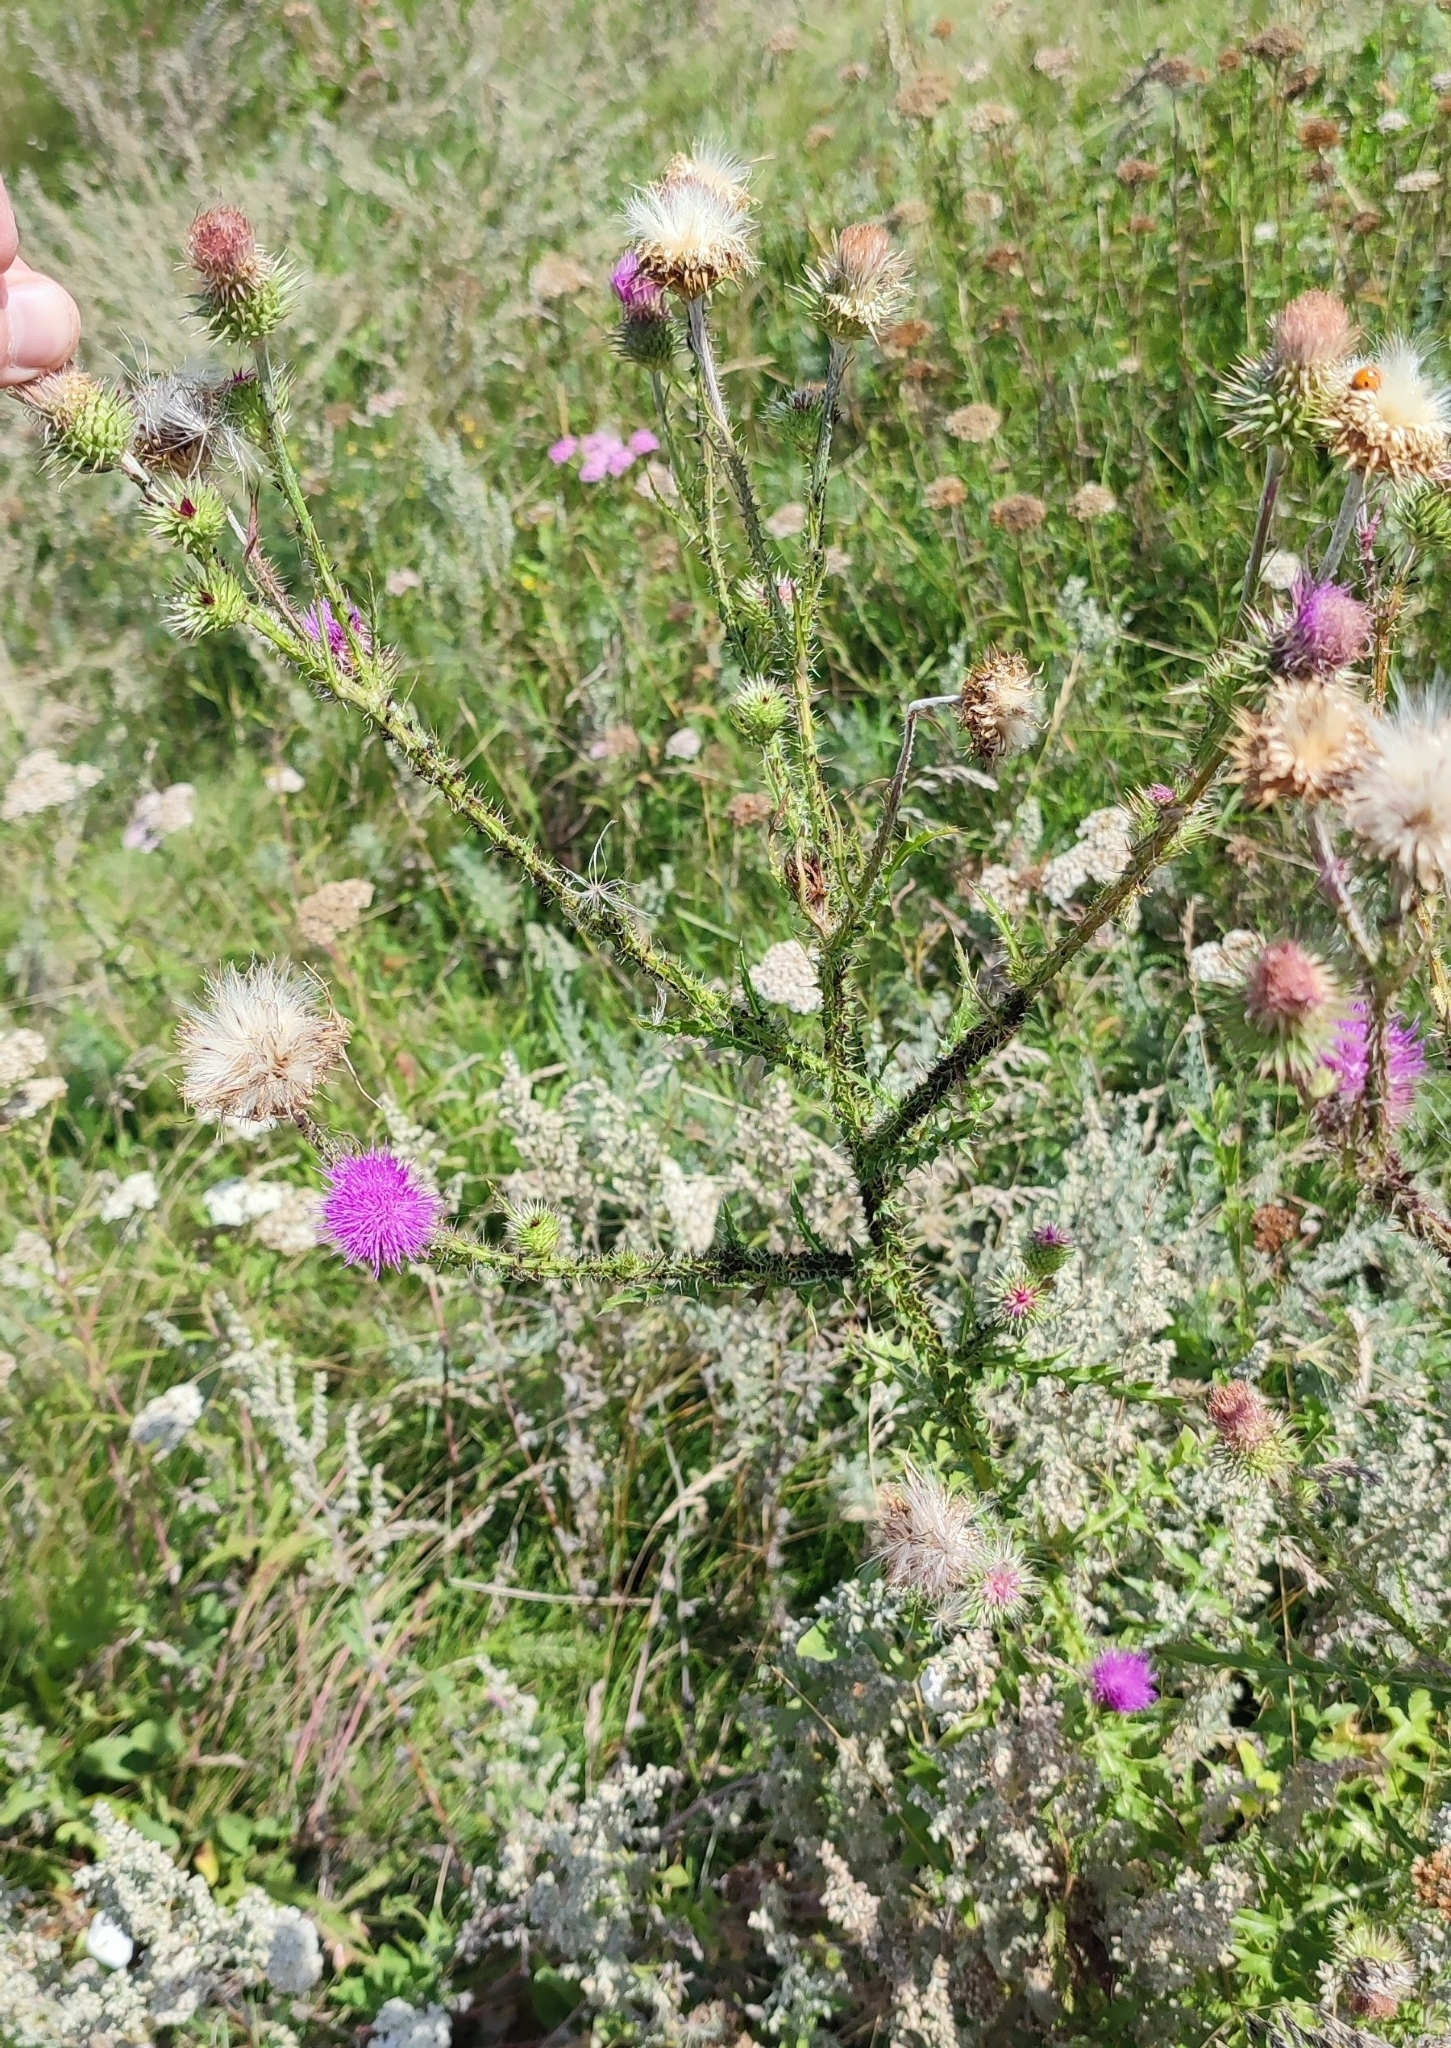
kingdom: Plantae
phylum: Tracheophyta
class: Magnoliopsida
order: Asterales
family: Asteraceae
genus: Carduus
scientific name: Carduus acanthoides
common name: Plumeless thistle
